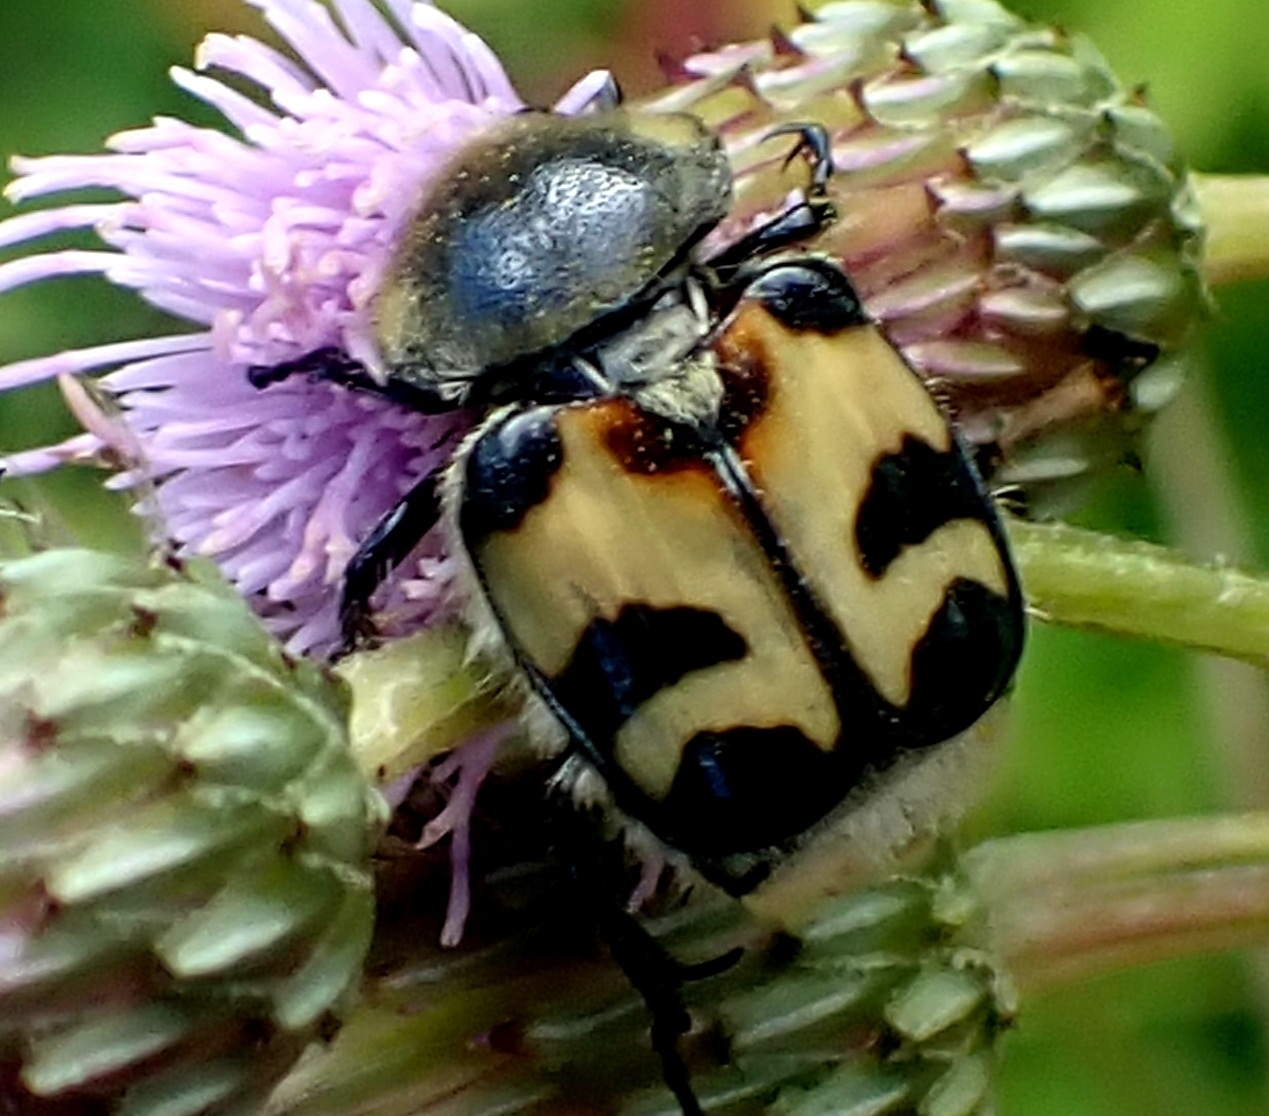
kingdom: Animalia
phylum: Arthropoda
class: Insecta
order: Coleoptera
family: Scarabaeidae
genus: Trichius
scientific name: Trichius fasciatus
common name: Bee beetle
